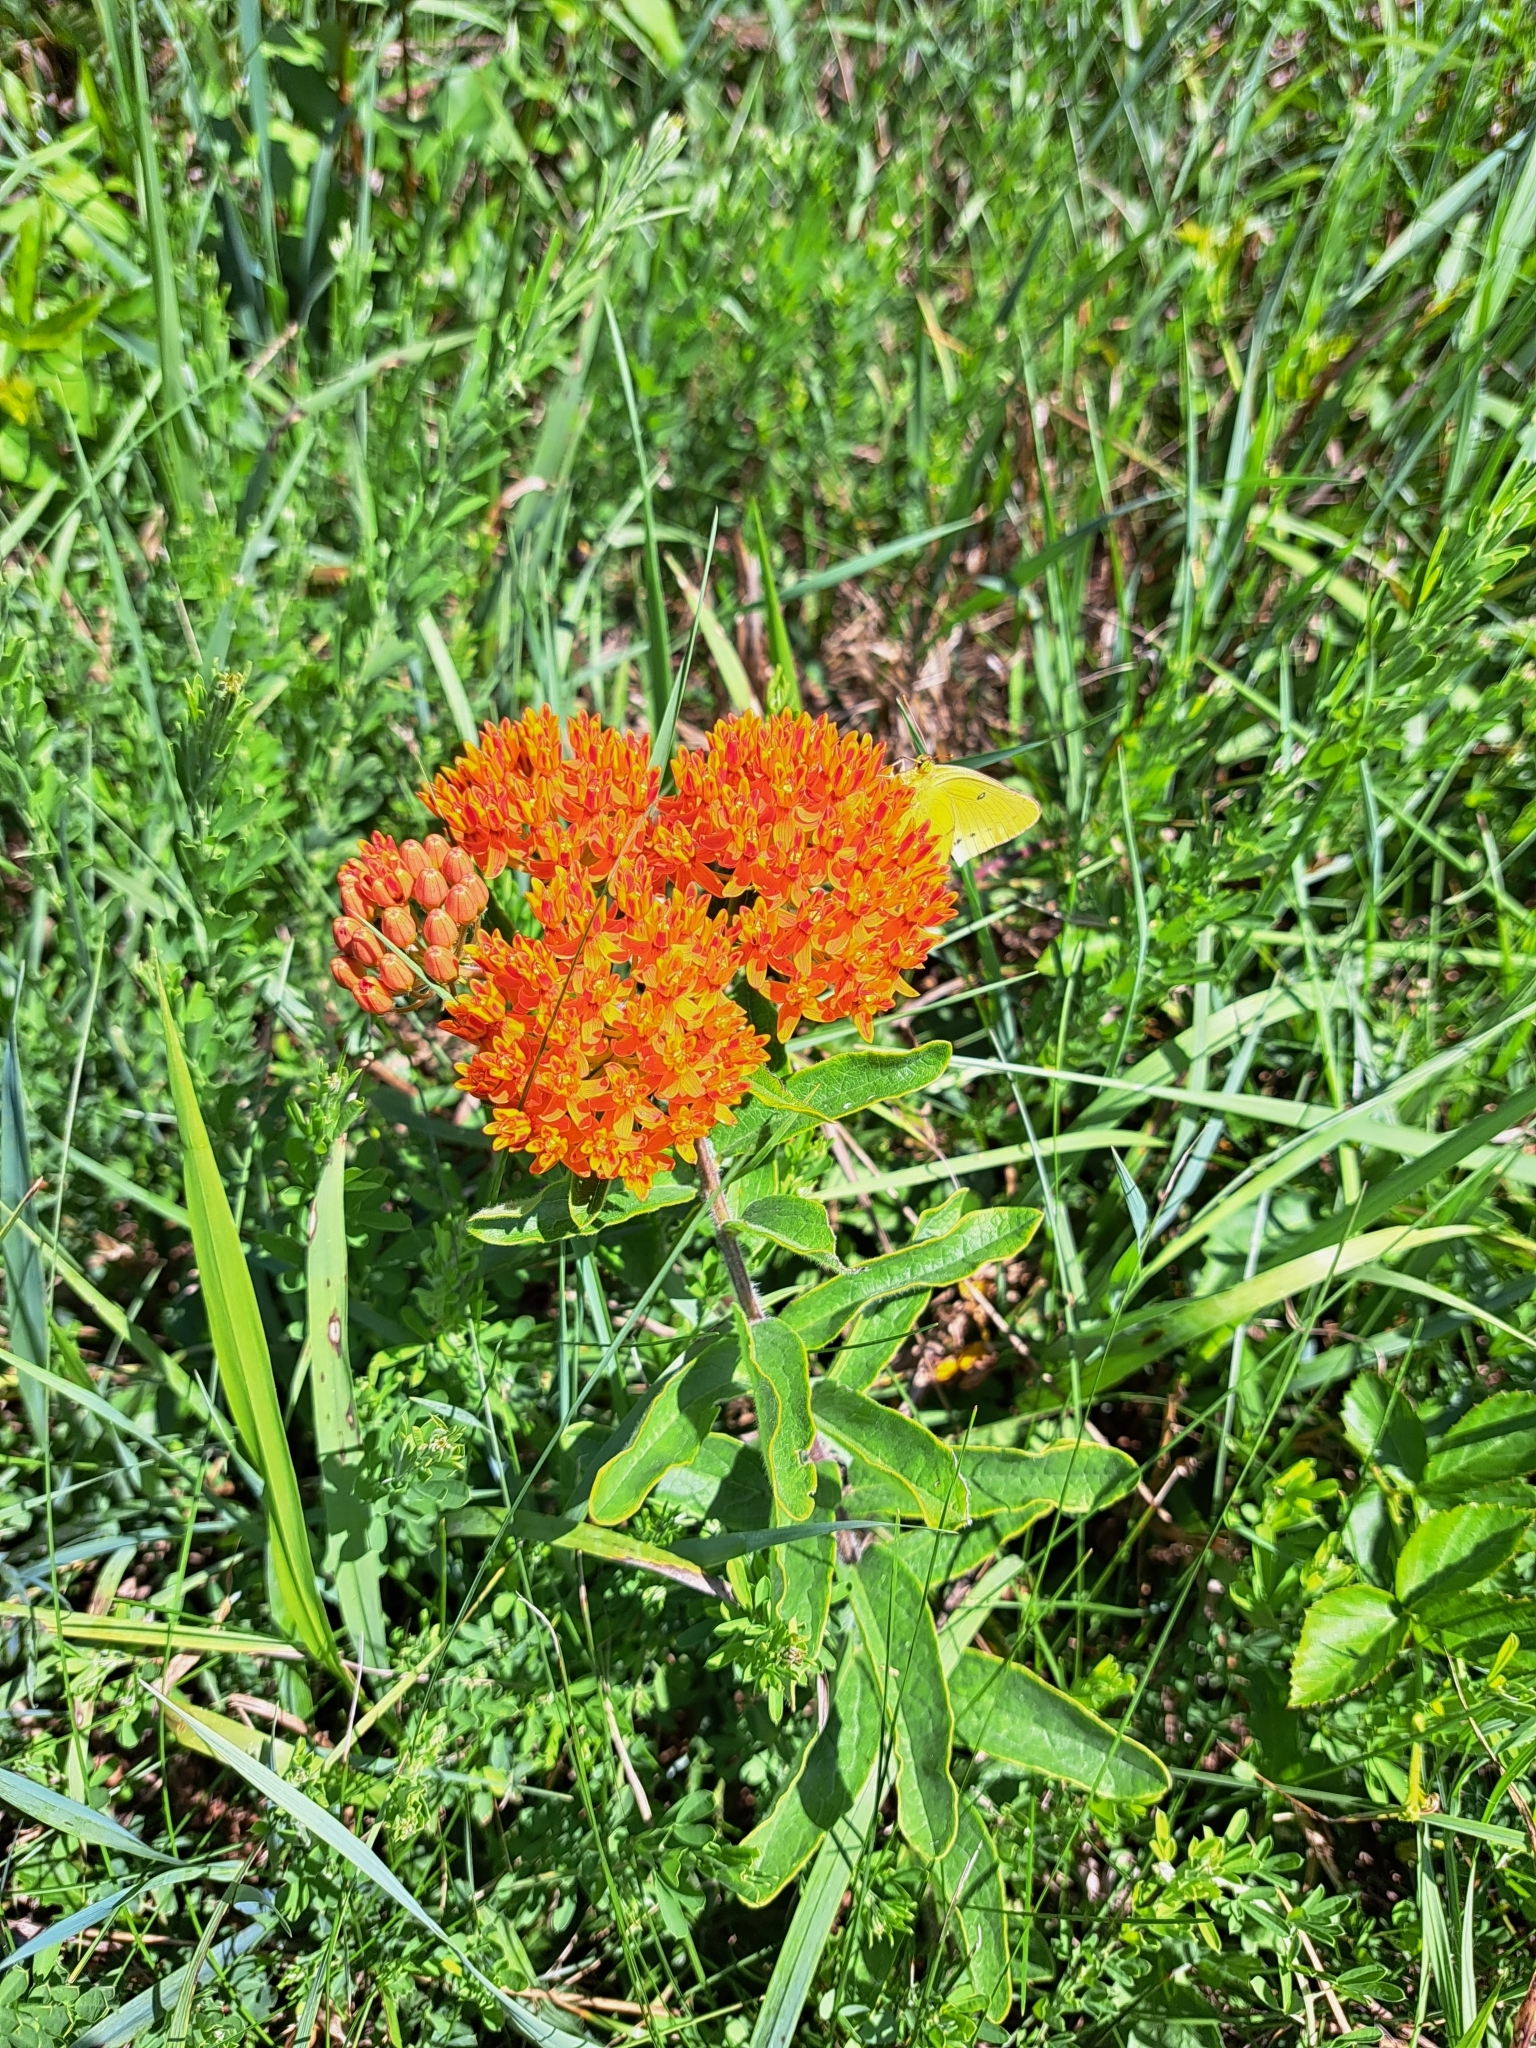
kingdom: Plantae
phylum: Tracheophyta
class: Magnoliopsida
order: Gentianales
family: Apocynaceae
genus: Asclepias
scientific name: Asclepias tuberosa
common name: Butterfly milkweed
